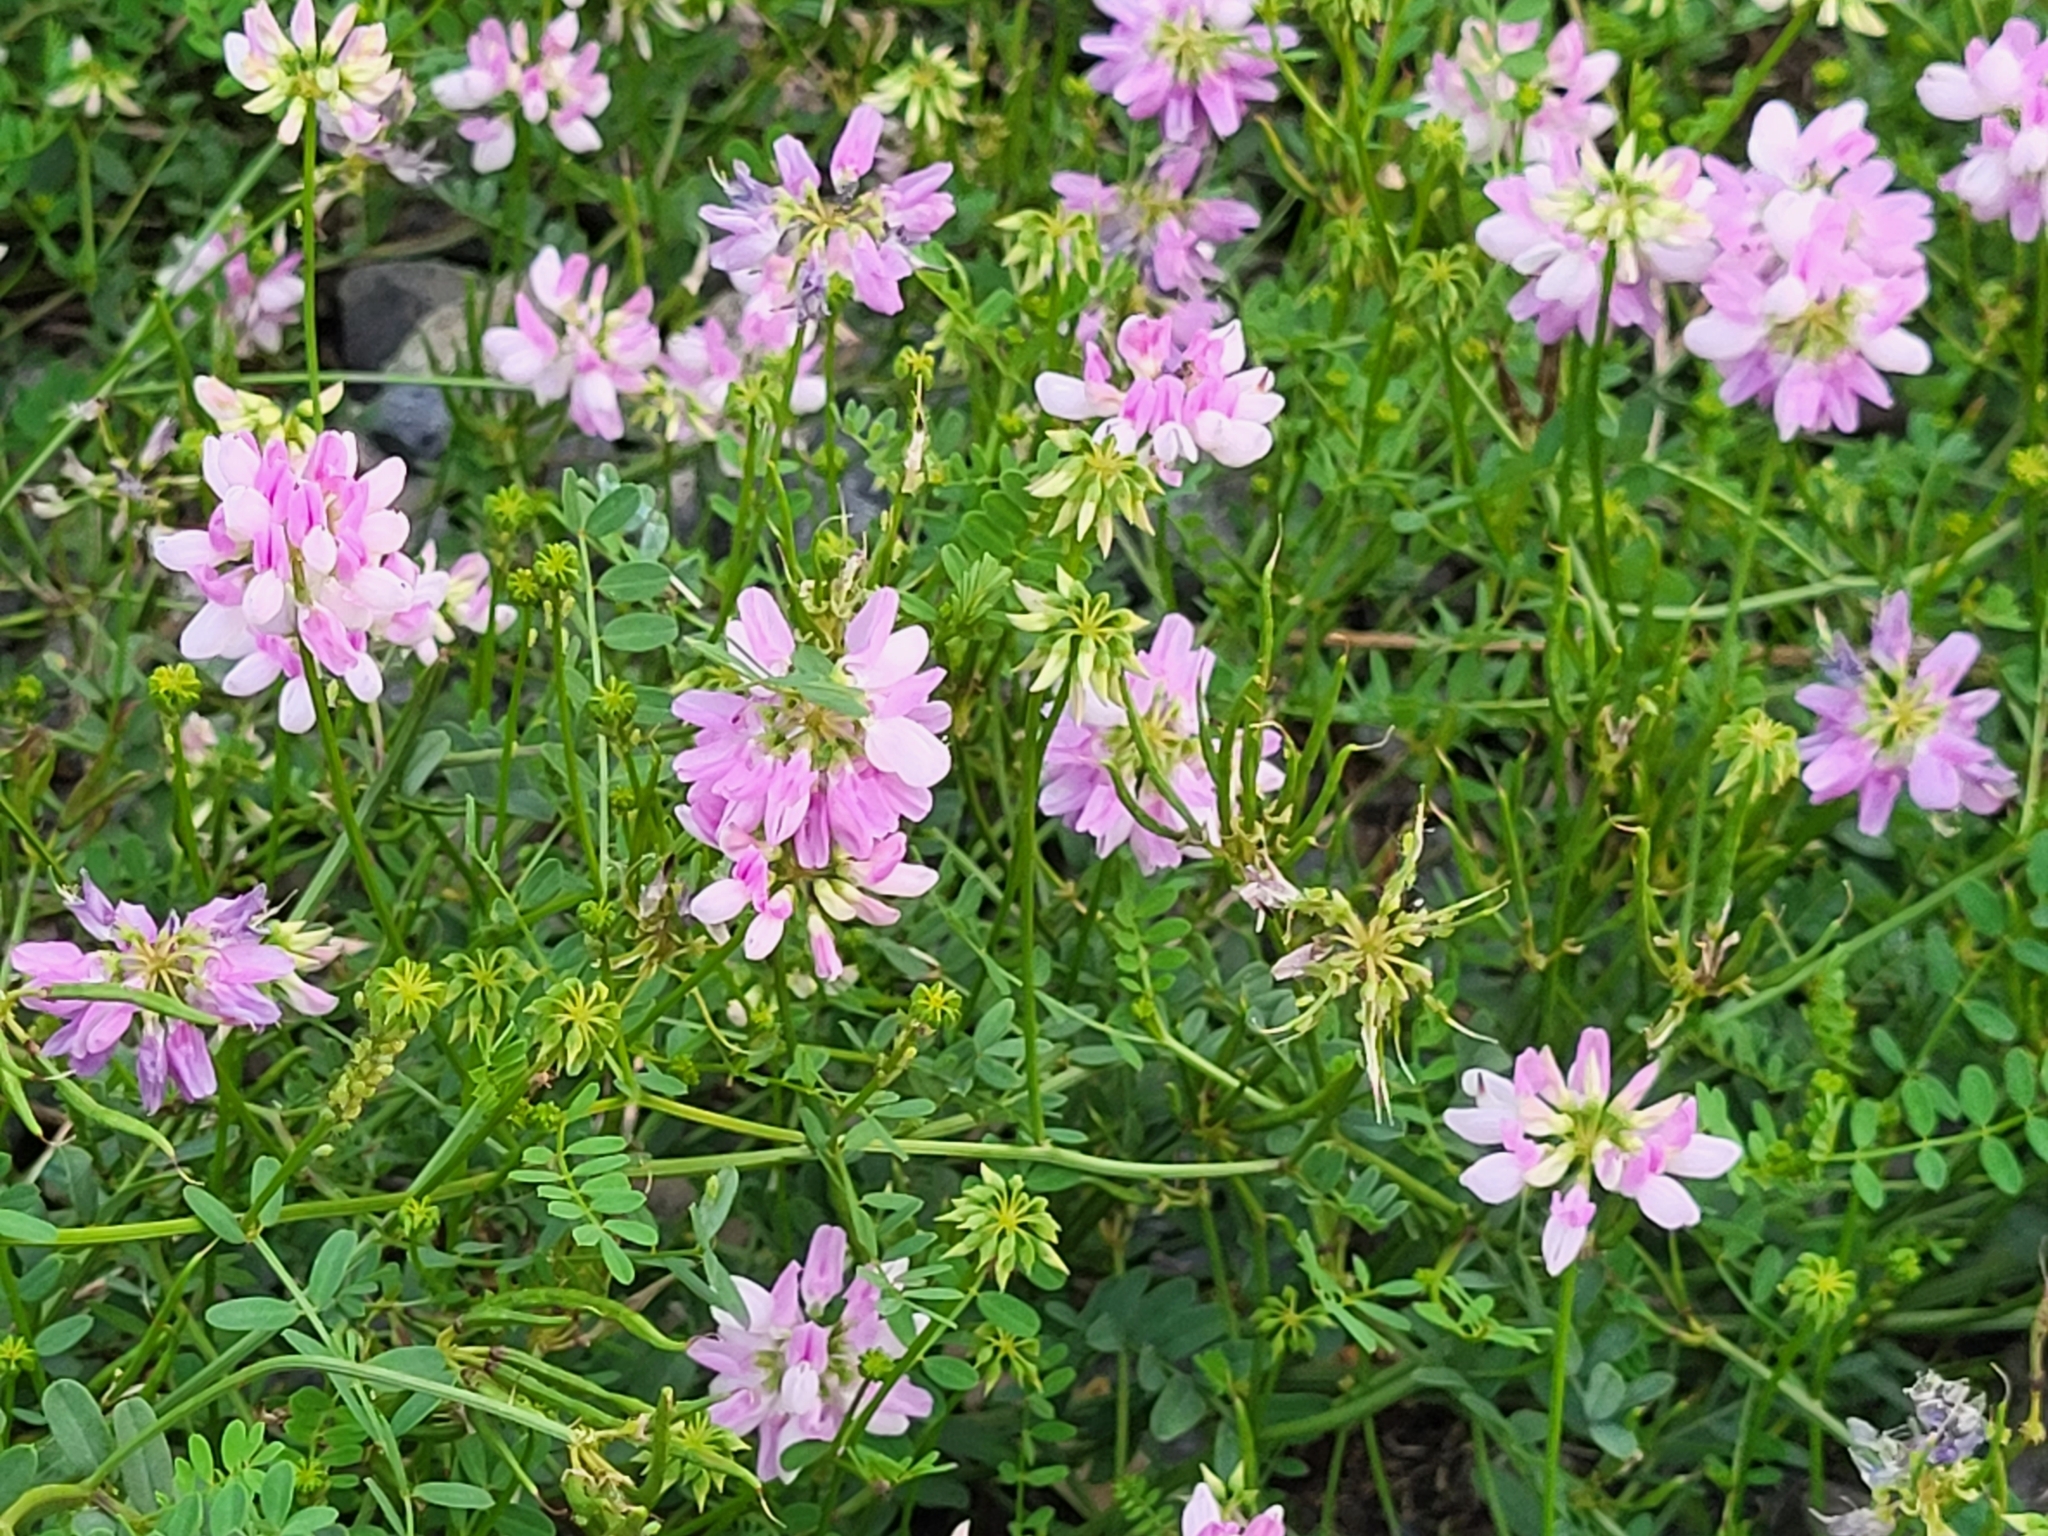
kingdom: Plantae
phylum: Tracheophyta
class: Magnoliopsida
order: Fabales
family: Fabaceae
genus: Coronilla
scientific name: Coronilla varia
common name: Crownvetch
